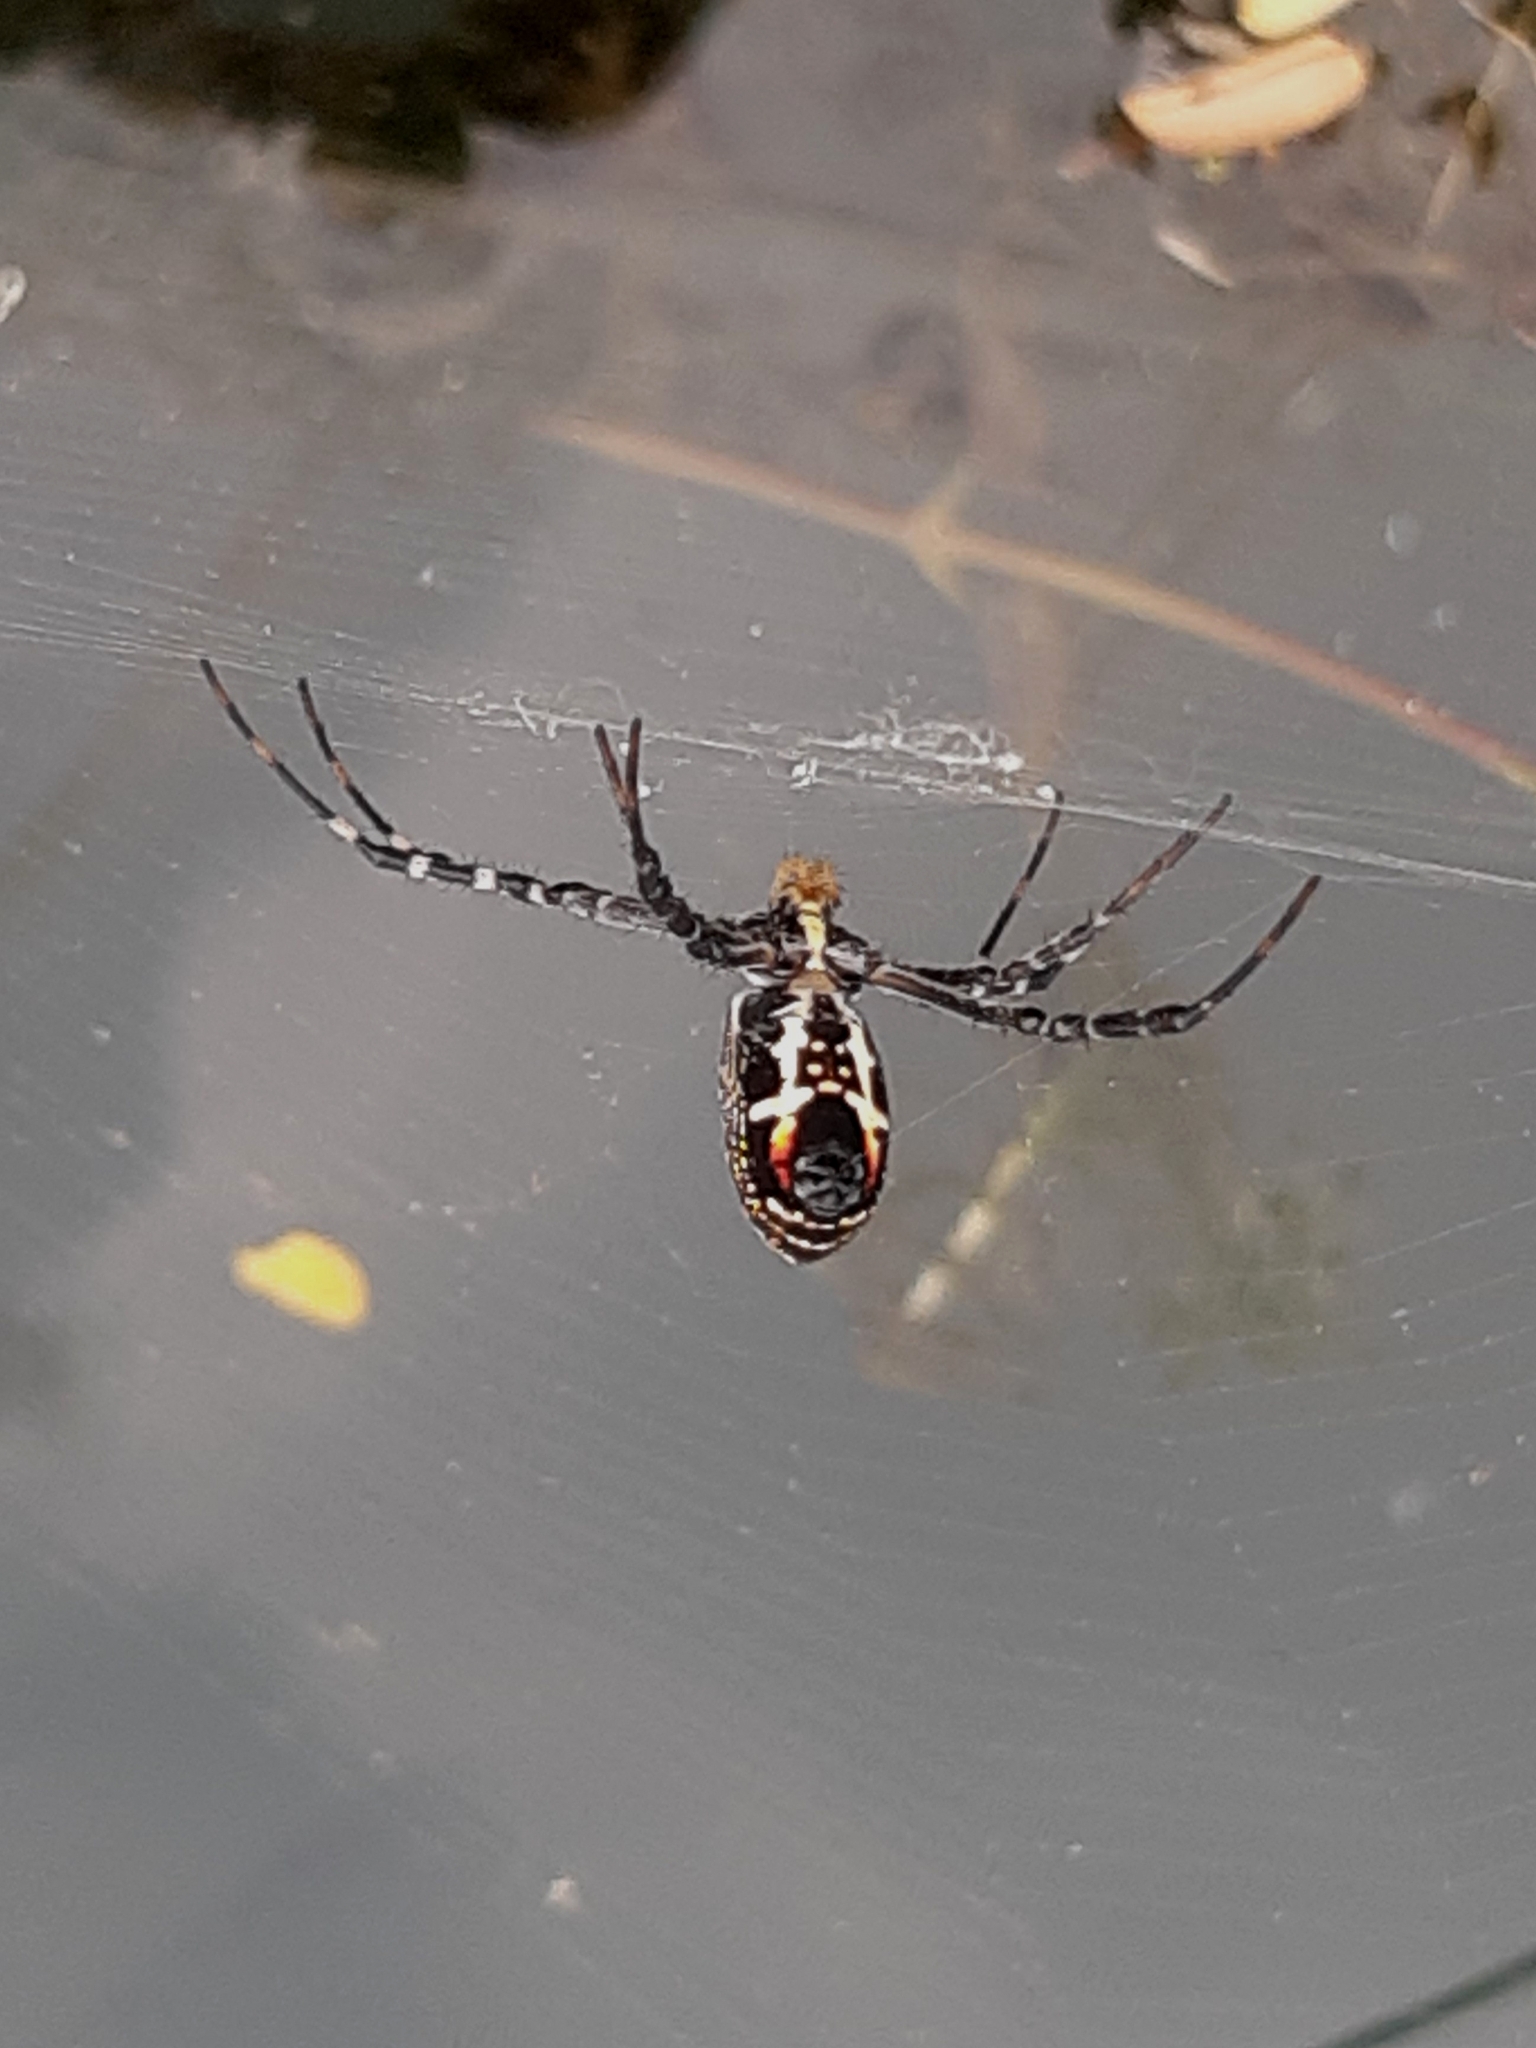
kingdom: Animalia
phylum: Arthropoda
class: Arachnida
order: Araneae
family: Araneidae
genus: Argiope
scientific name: Argiope catenulata
